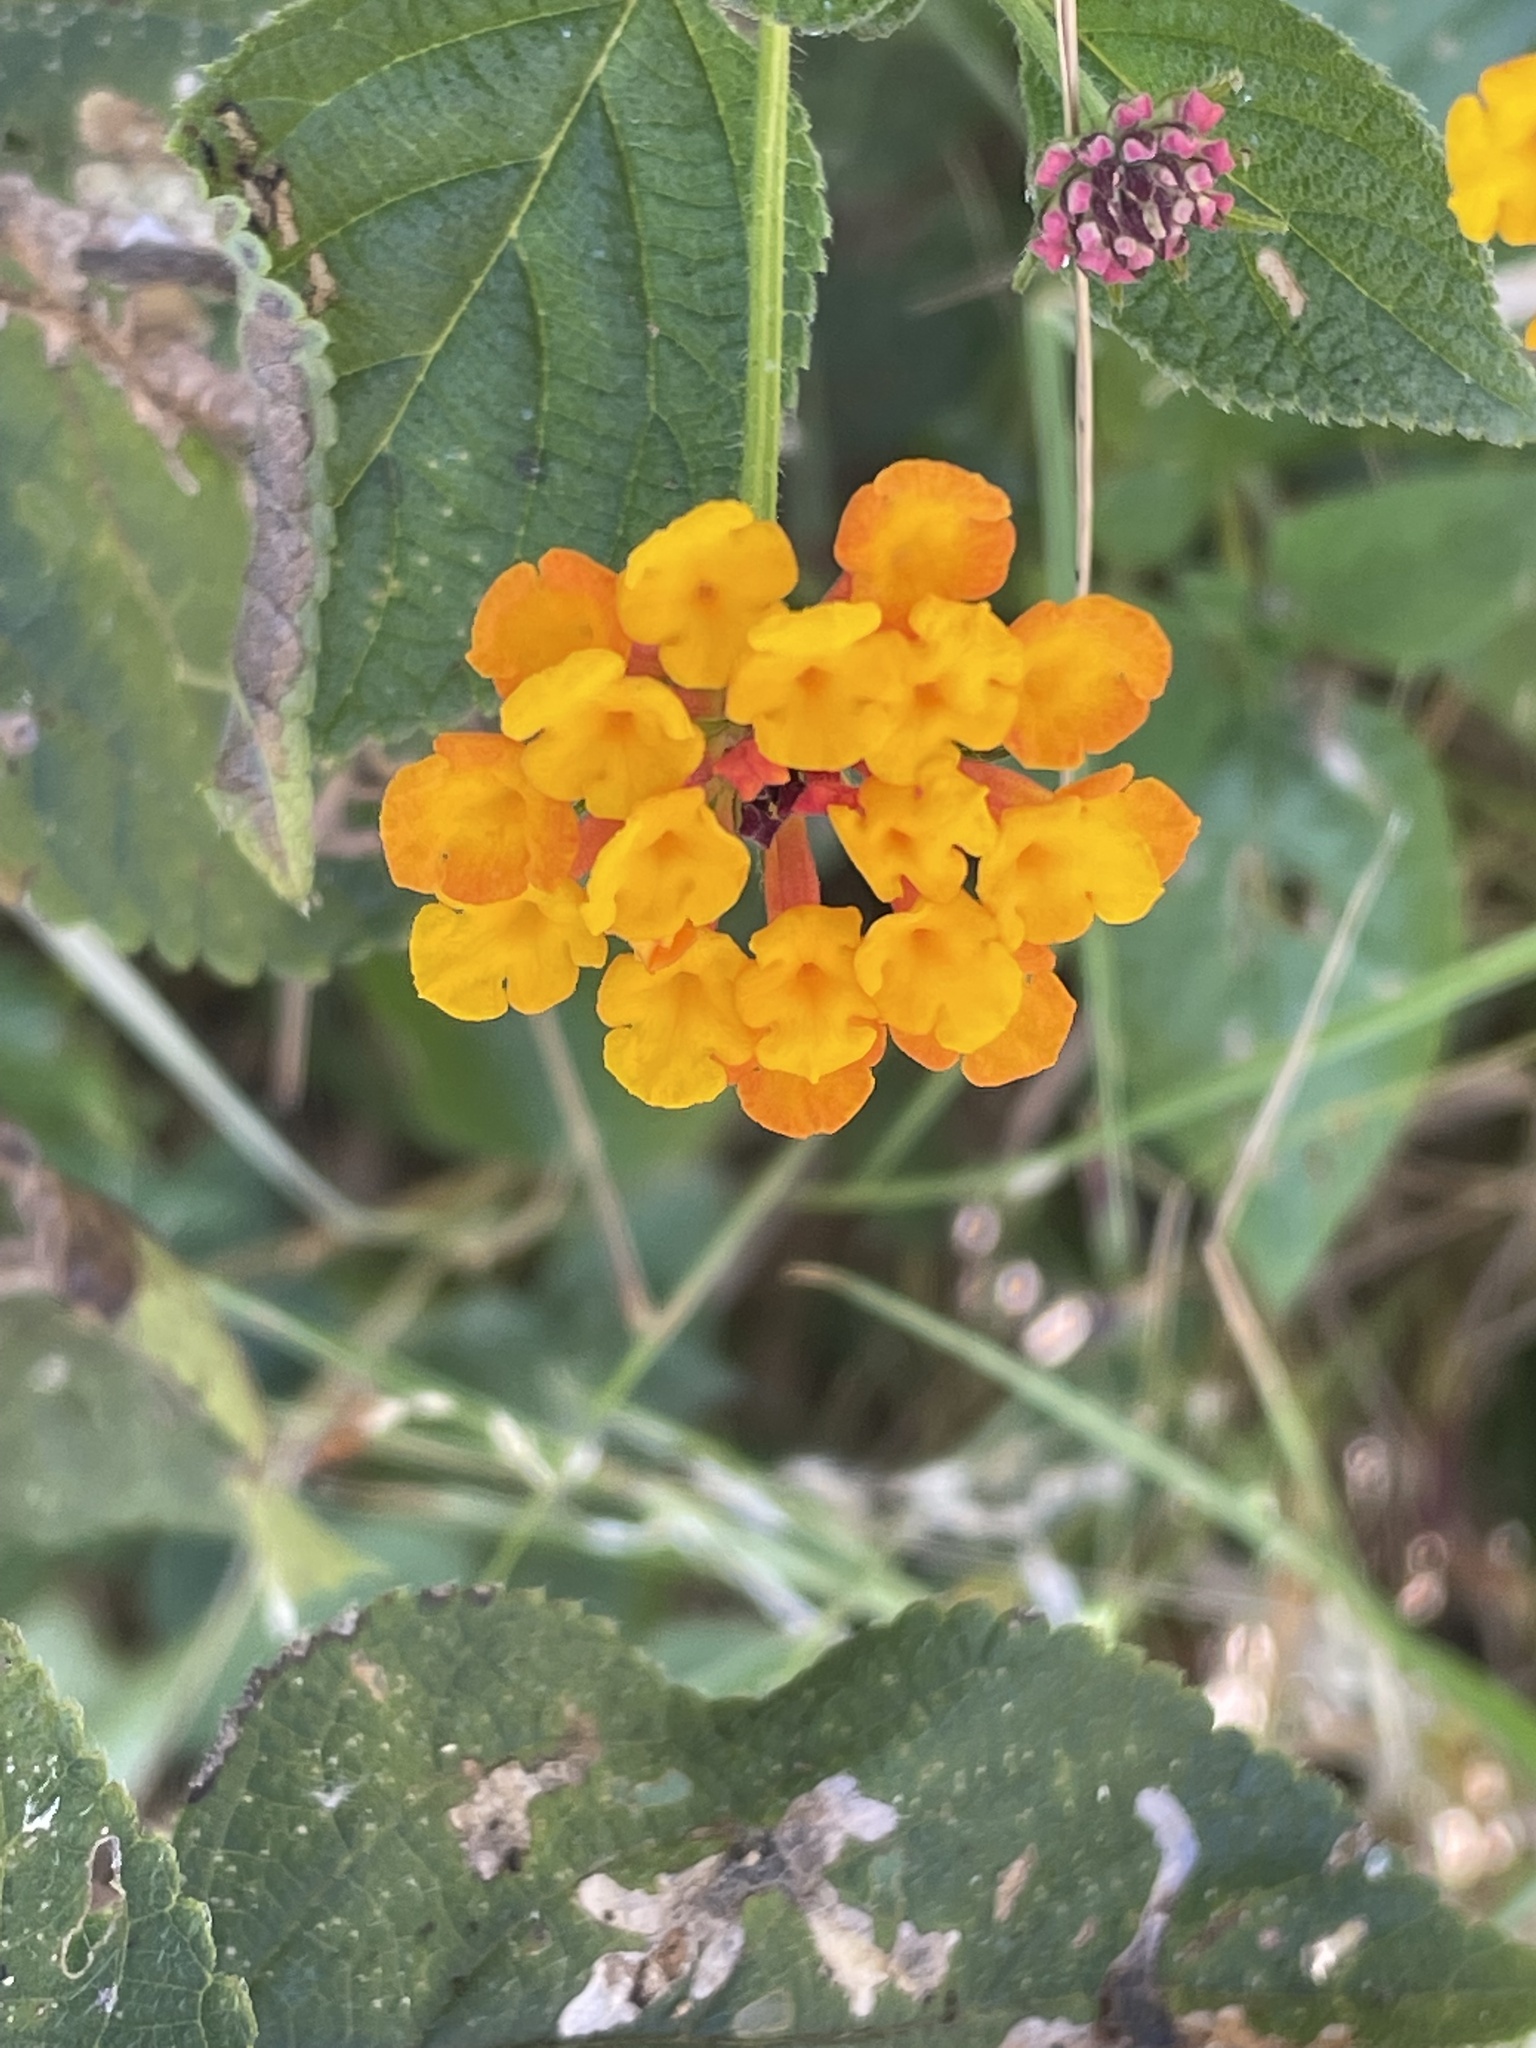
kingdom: Plantae
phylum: Tracheophyta
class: Magnoliopsida
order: Lamiales
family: Verbenaceae
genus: Lantana
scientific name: Lantana camara
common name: Lantana
